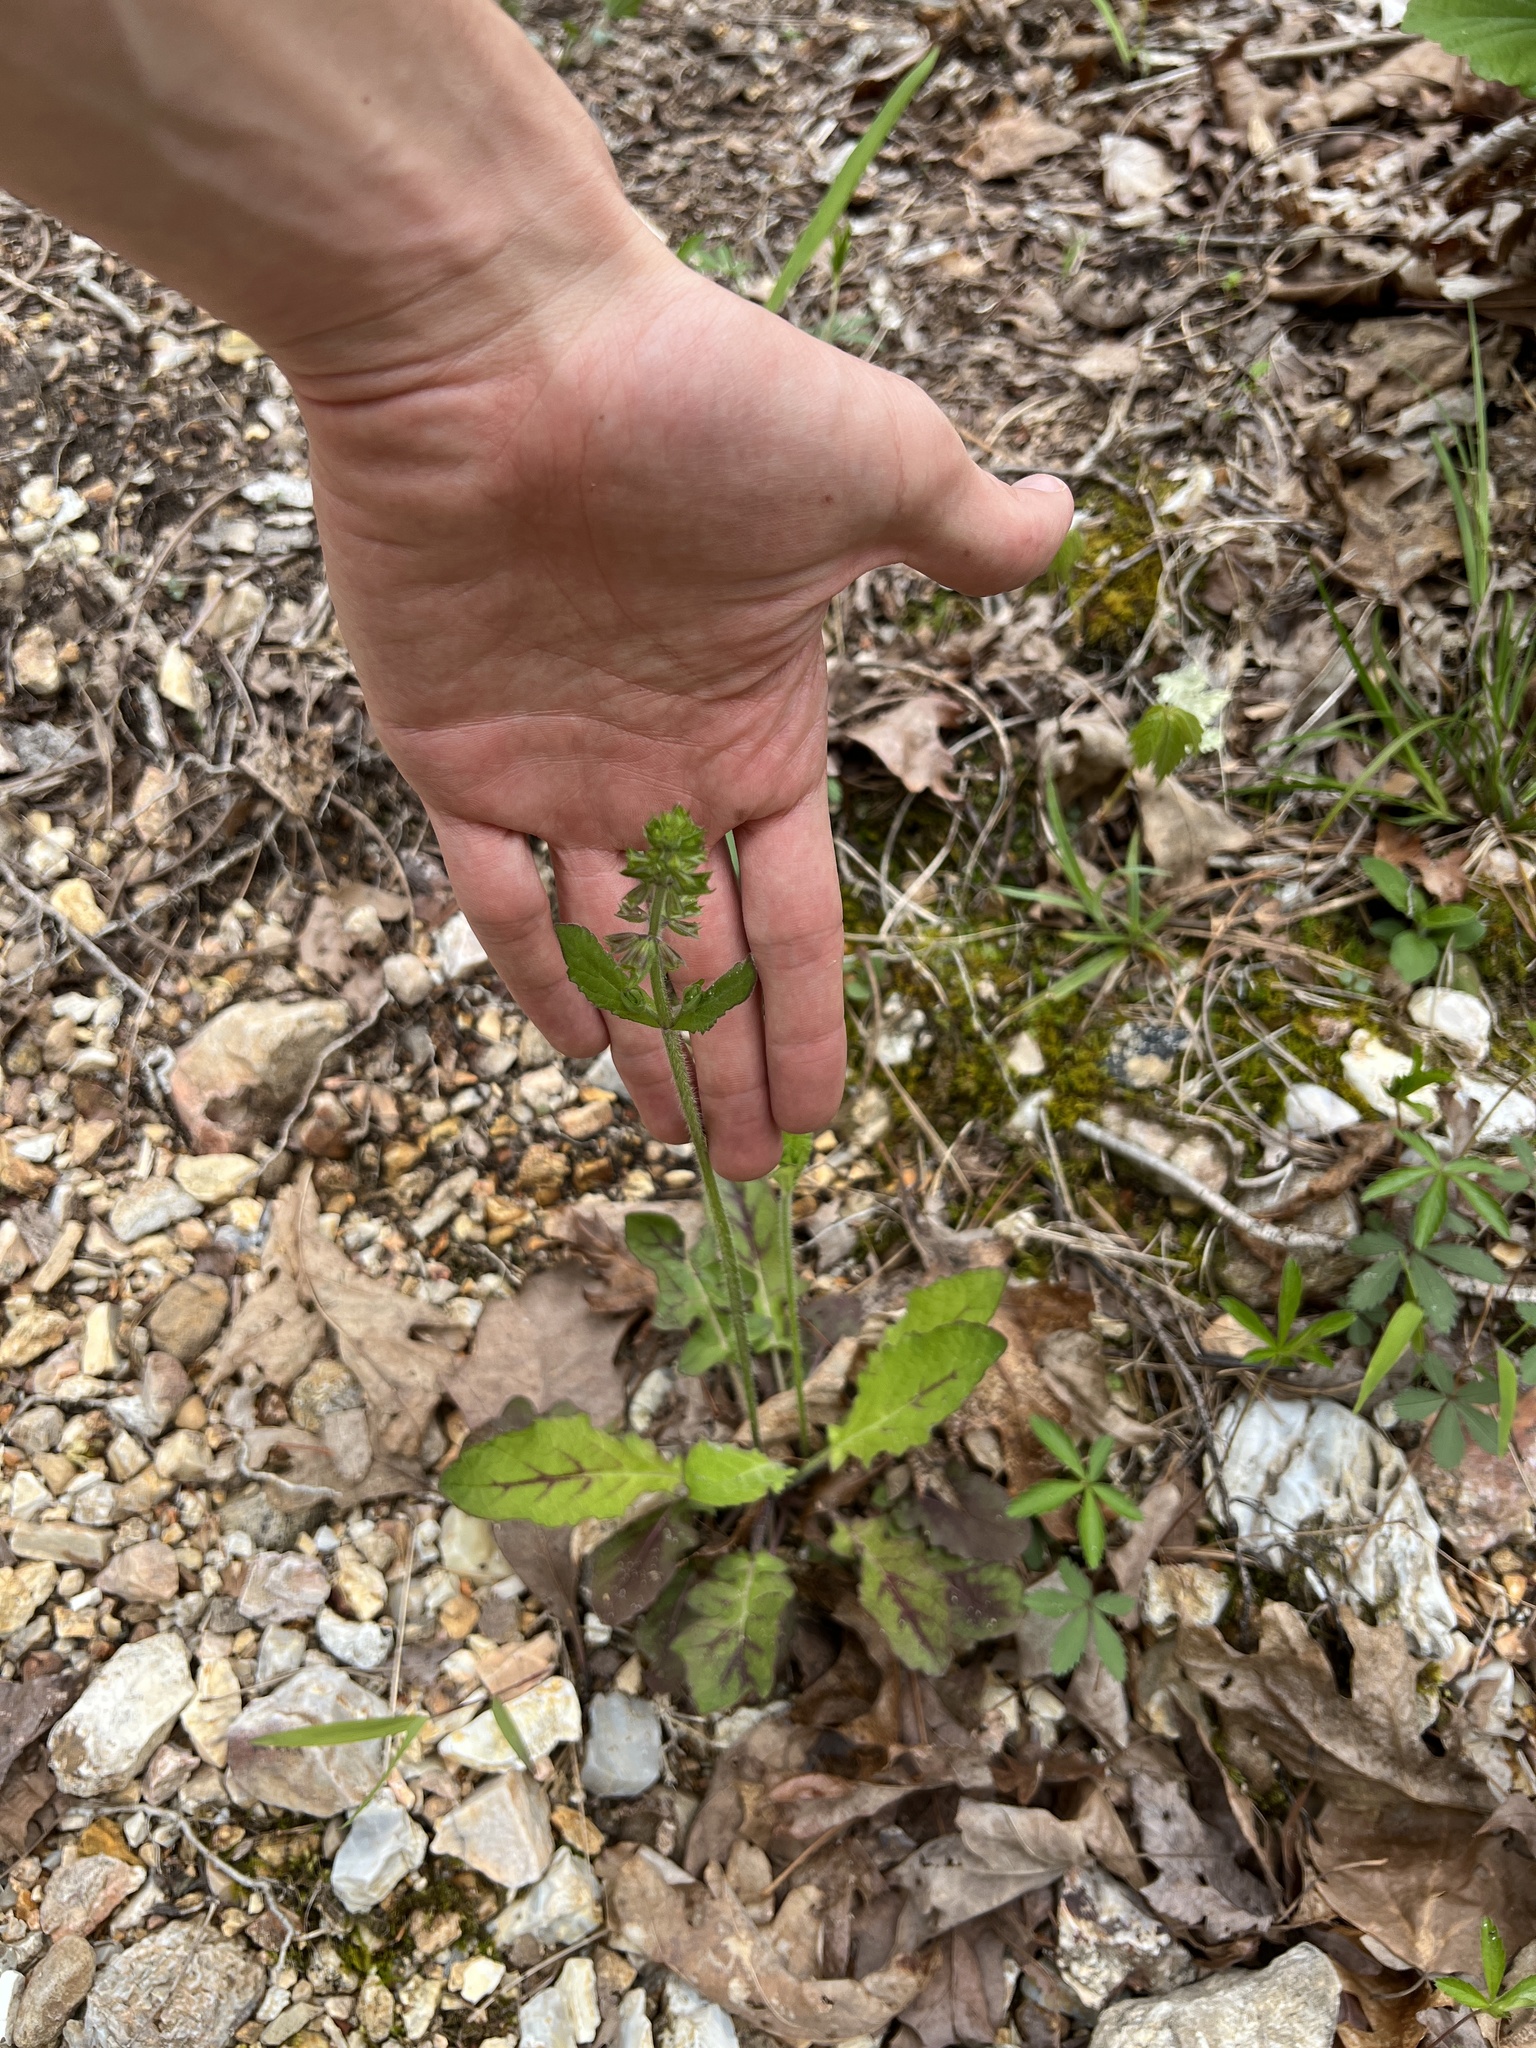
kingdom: Plantae
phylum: Tracheophyta
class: Magnoliopsida
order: Lamiales
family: Lamiaceae
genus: Salvia
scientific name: Salvia lyrata
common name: Cancerweed
